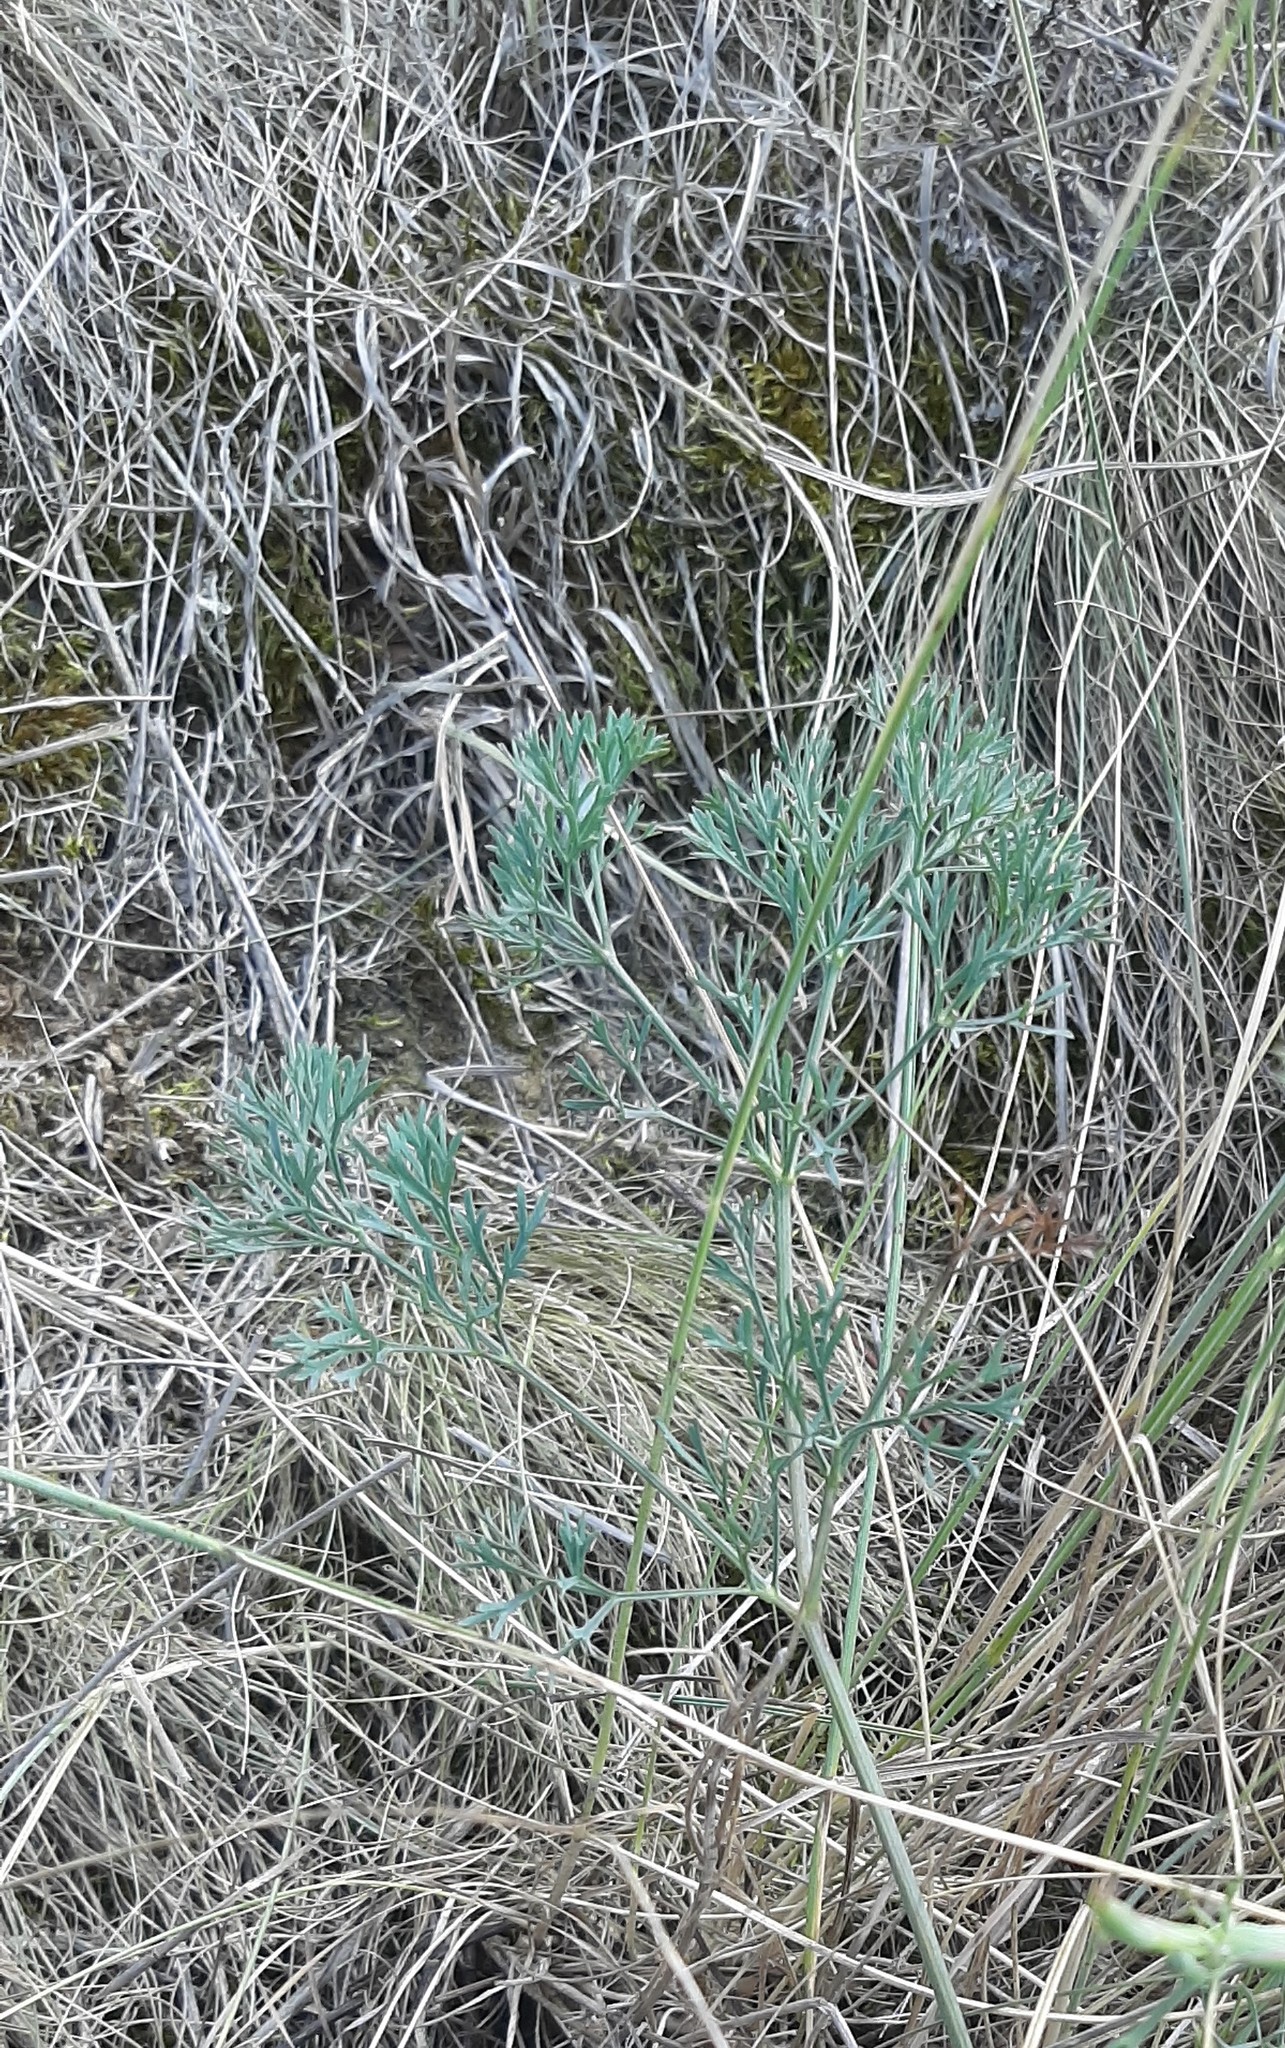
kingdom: Plantae
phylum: Tracheophyta
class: Magnoliopsida
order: Apiales
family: Apiaceae
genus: Seseli
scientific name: Seseli arenarium
